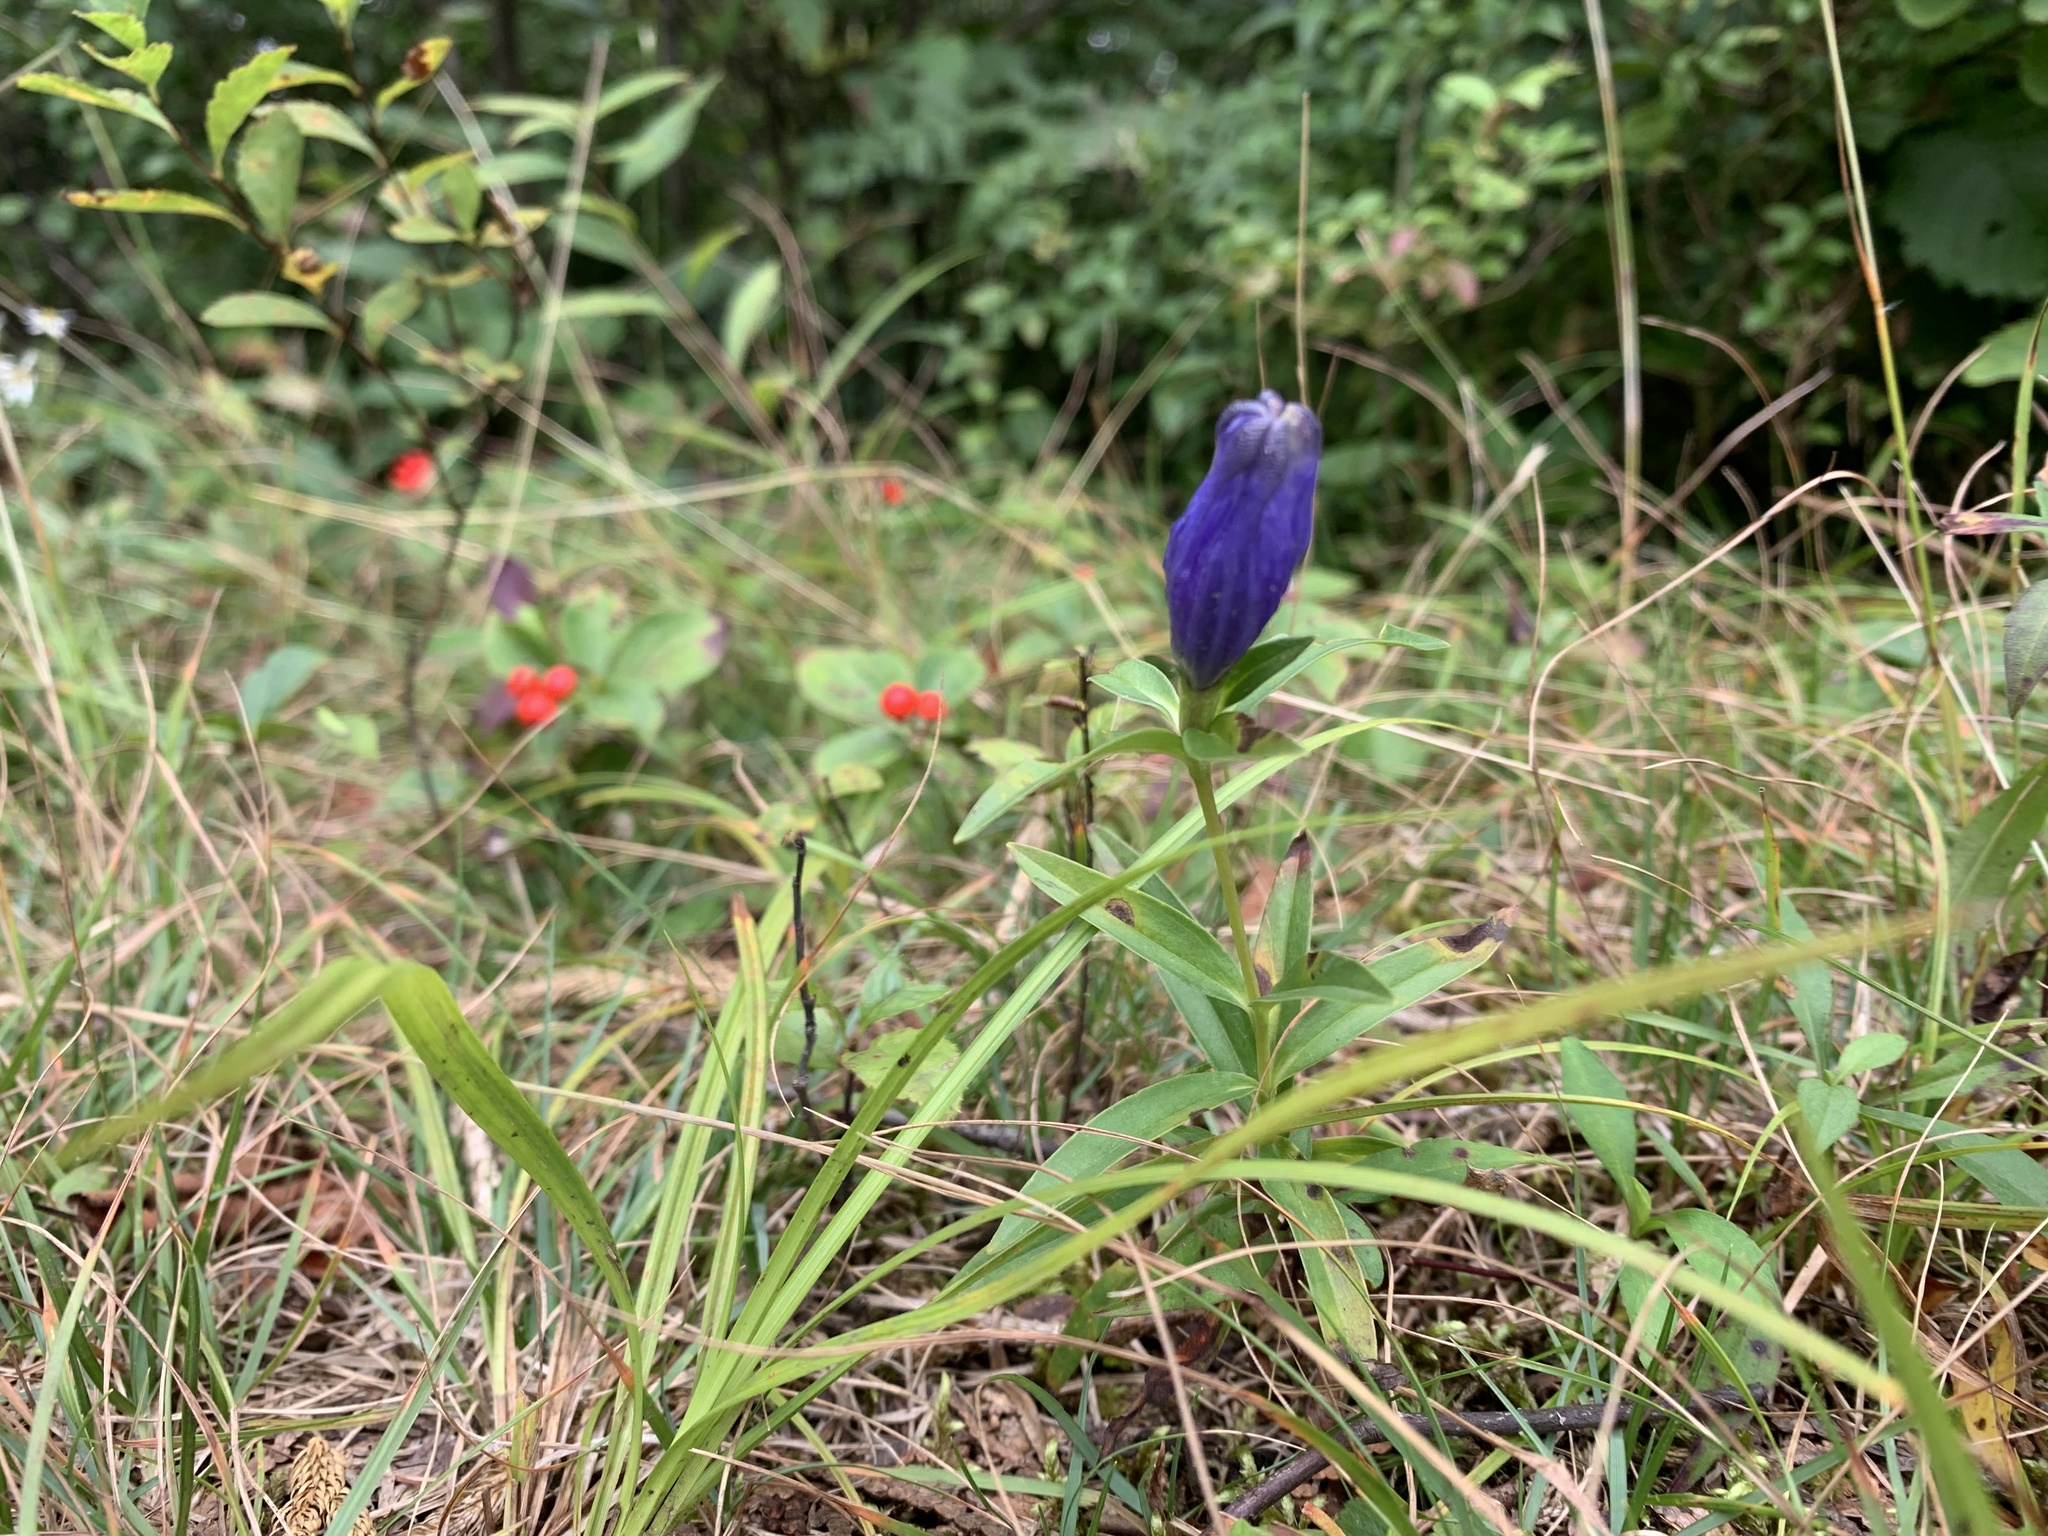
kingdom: Plantae
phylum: Tracheophyta
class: Magnoliopsida
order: Gentianales
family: Gentianaceae
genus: Gentiana
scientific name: Gentiana linearis
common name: Bastard gentian
